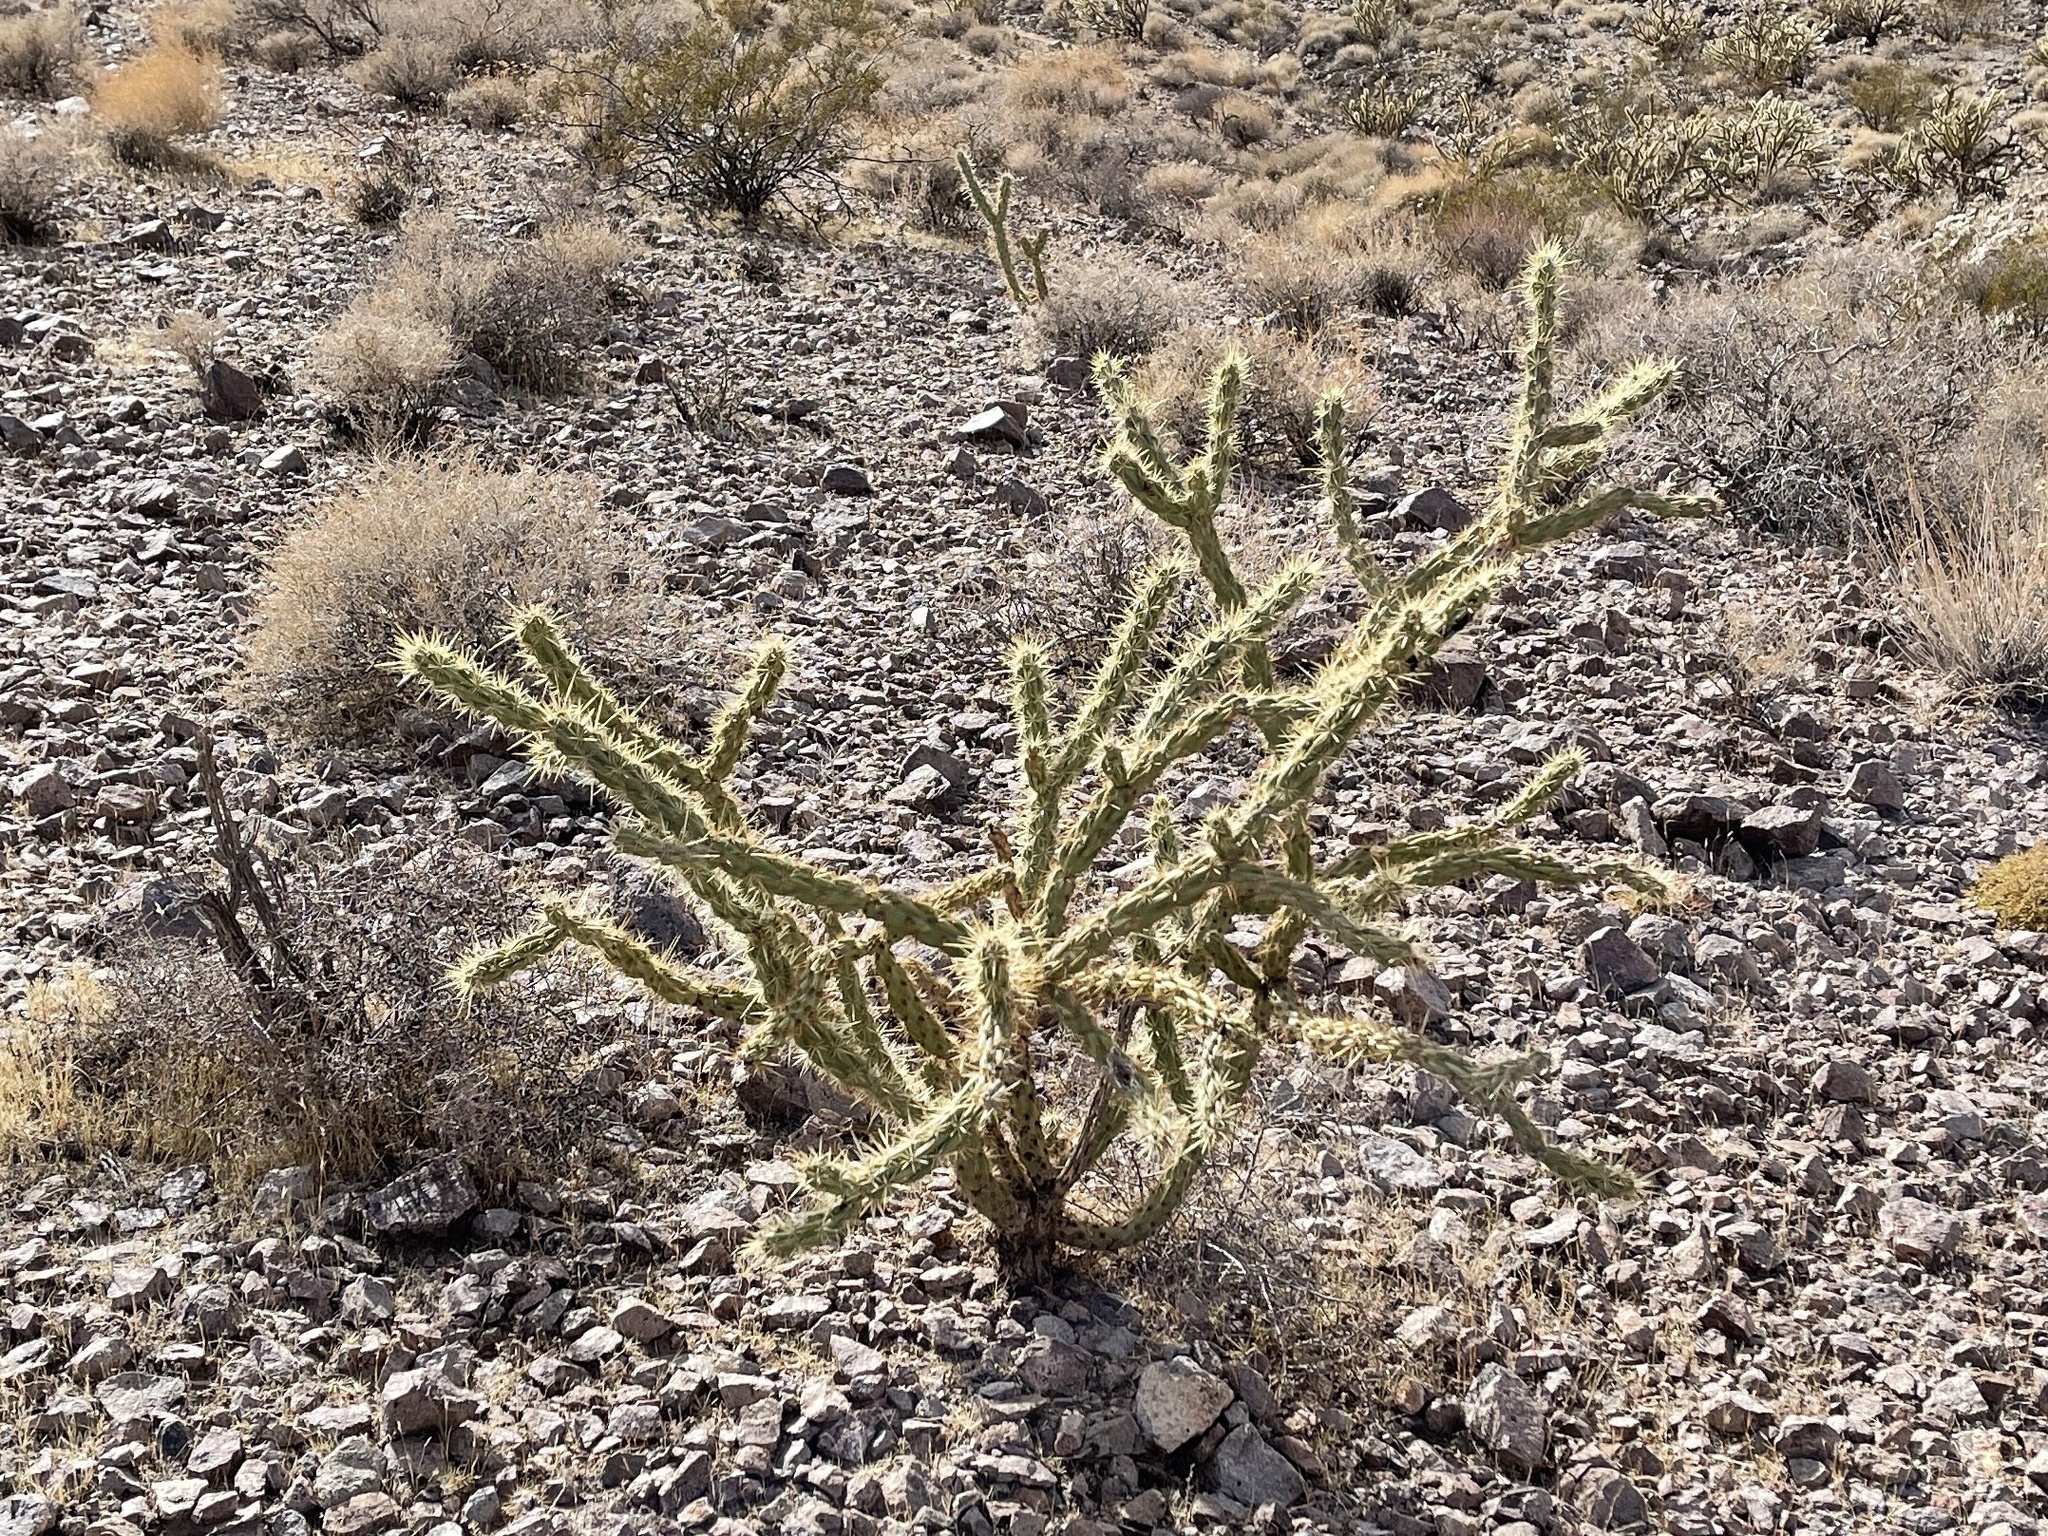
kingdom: Plantae
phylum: Tracheophyta
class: Magnoliopsida
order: Caryophyllales
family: Cactaceae
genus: Cylindropuntia
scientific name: Cylindropuntia acanthocarpa
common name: Buckhorn cholla
